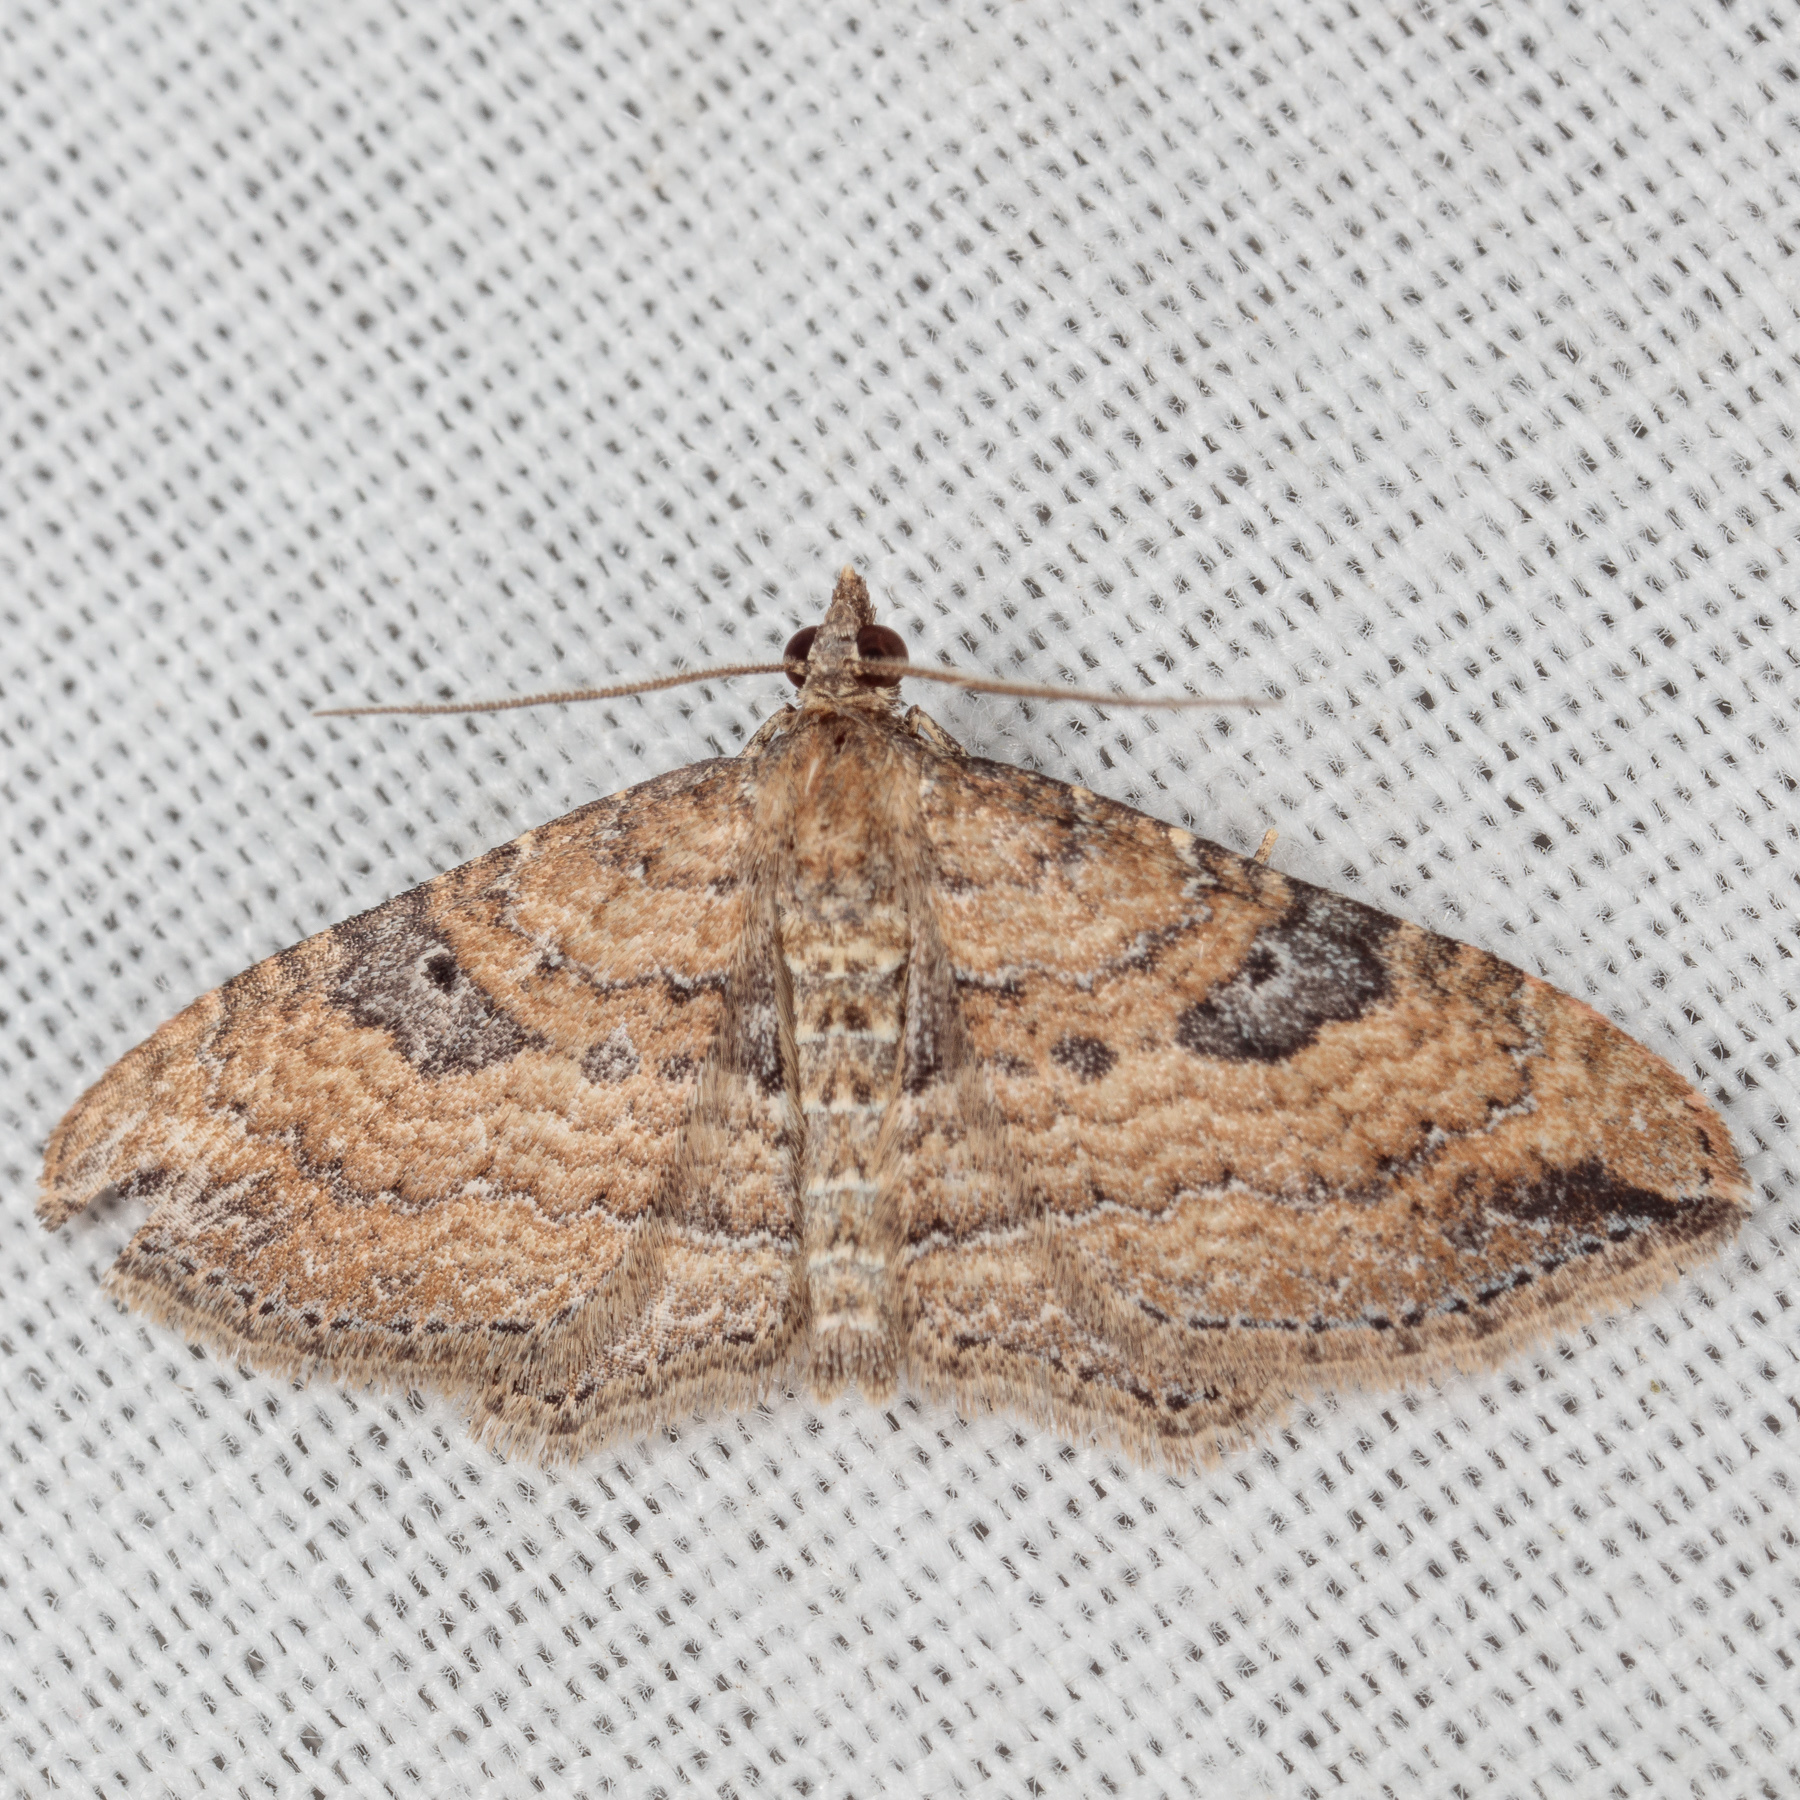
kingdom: Animalia
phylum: Arthropoda
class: Insecta
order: Lepidoptera
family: Geometridae
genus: Orthonama
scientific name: Orthonama obstipata
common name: The gem
